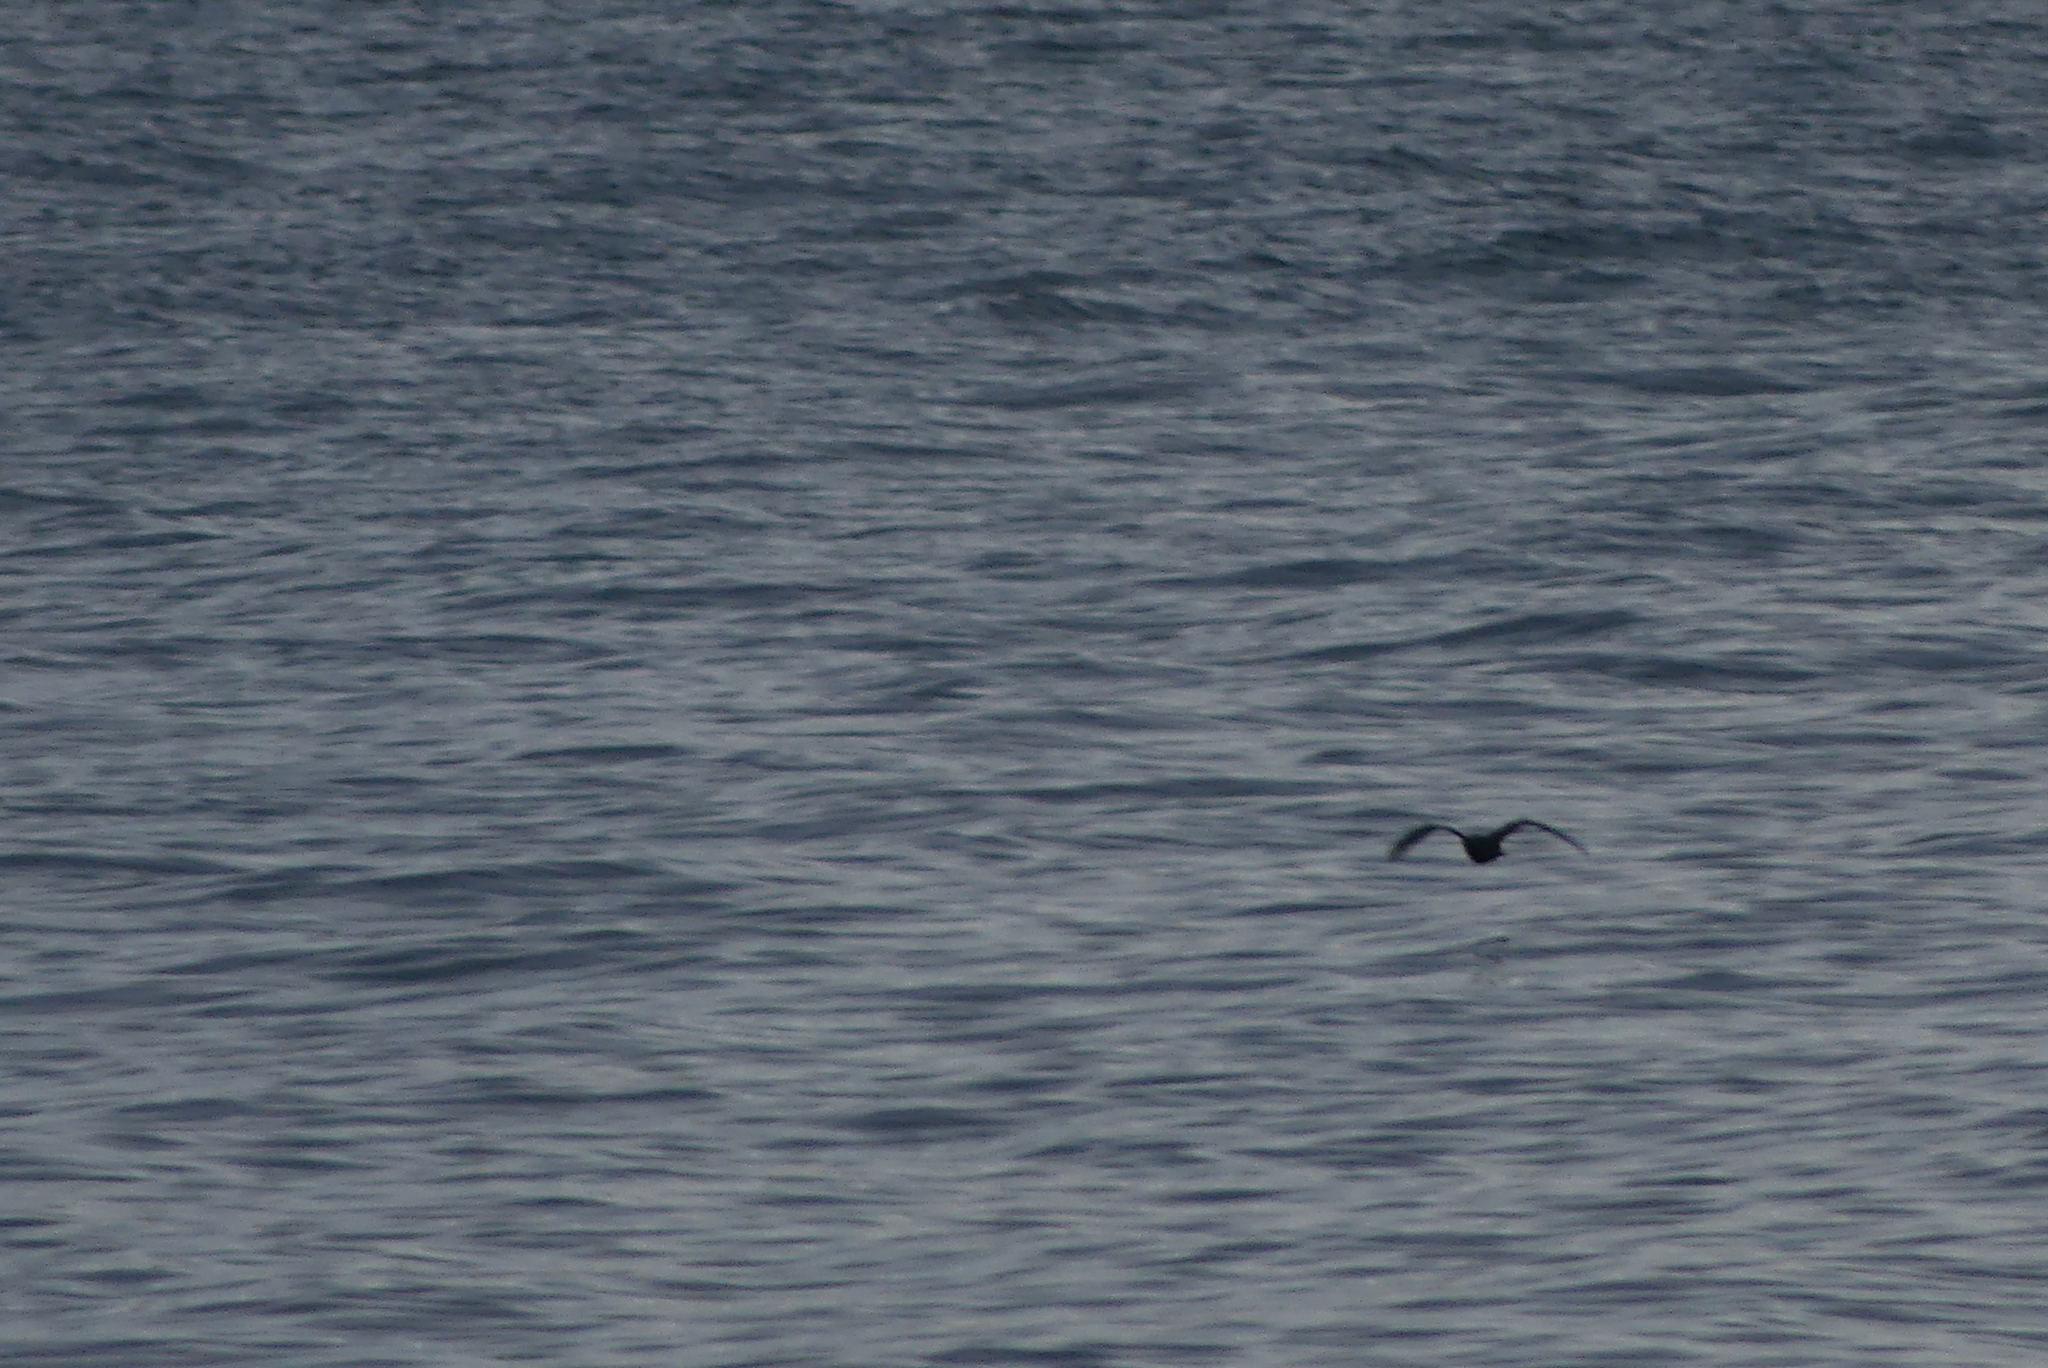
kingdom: Animalia
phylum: Chordata
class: Aves
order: Charadriiformes
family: Haematopodidae
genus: Haematopus
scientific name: Haematopus bachmani
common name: Black oystercatcher
